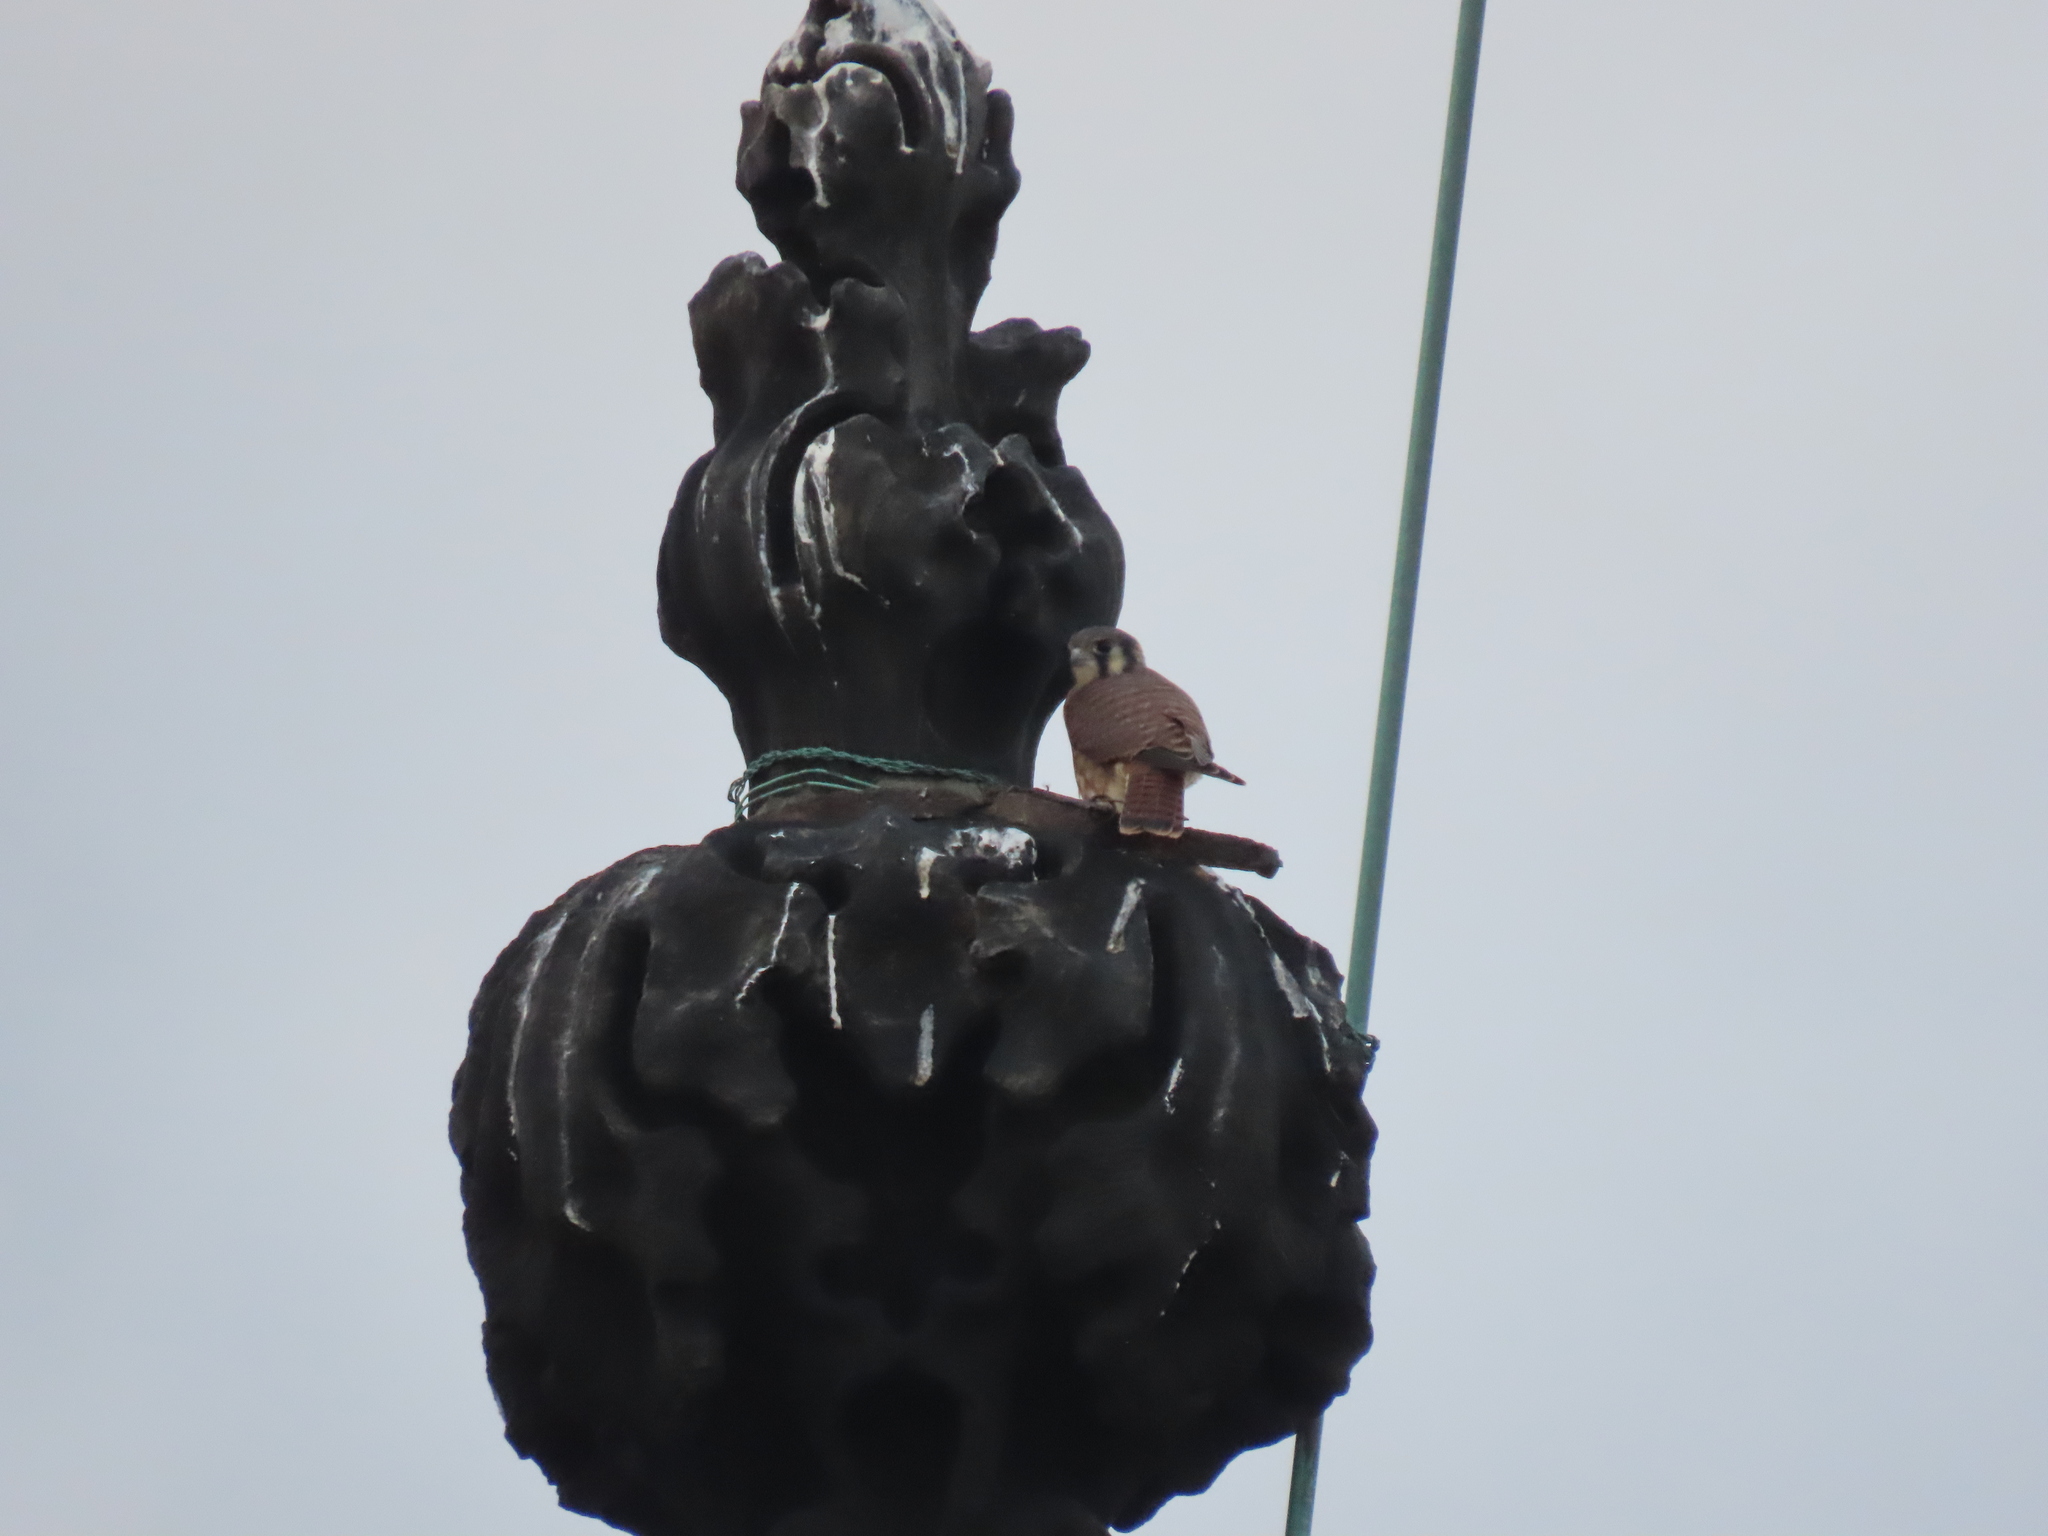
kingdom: Animalia
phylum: Chordata
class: Aves
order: Falconiformes
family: Falconidae
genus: Falco
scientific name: Falco sparverius
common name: American kestrel
